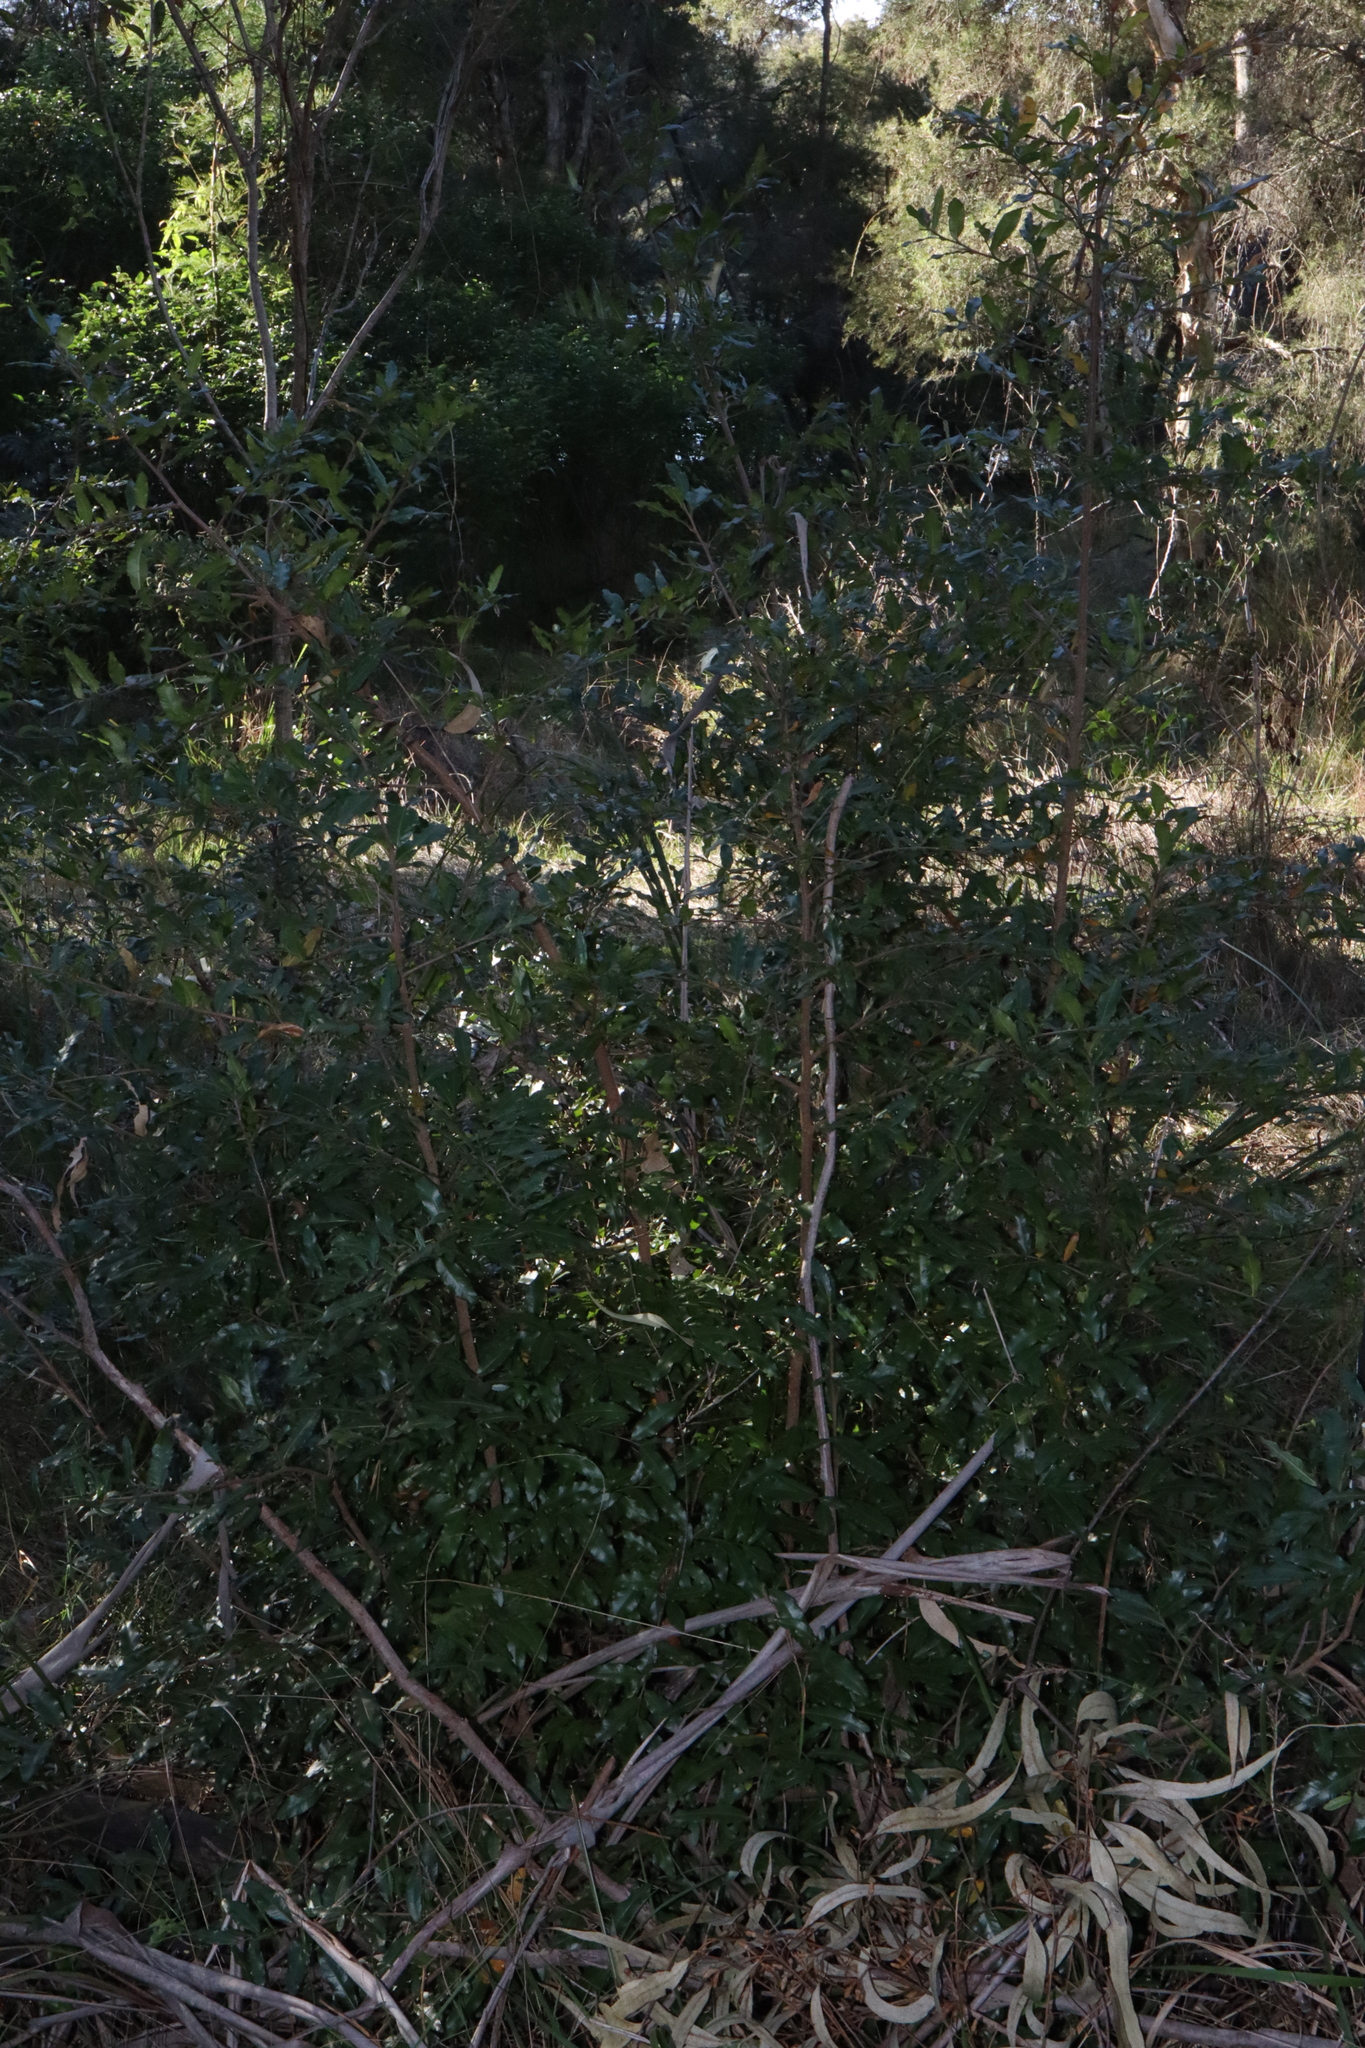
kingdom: Plantae
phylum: Tracheophyta
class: Magnoliopsida
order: Malpighiales
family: Ochnaceae
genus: Ochna
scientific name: Ochna serrulata
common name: Mickey mouse plant
